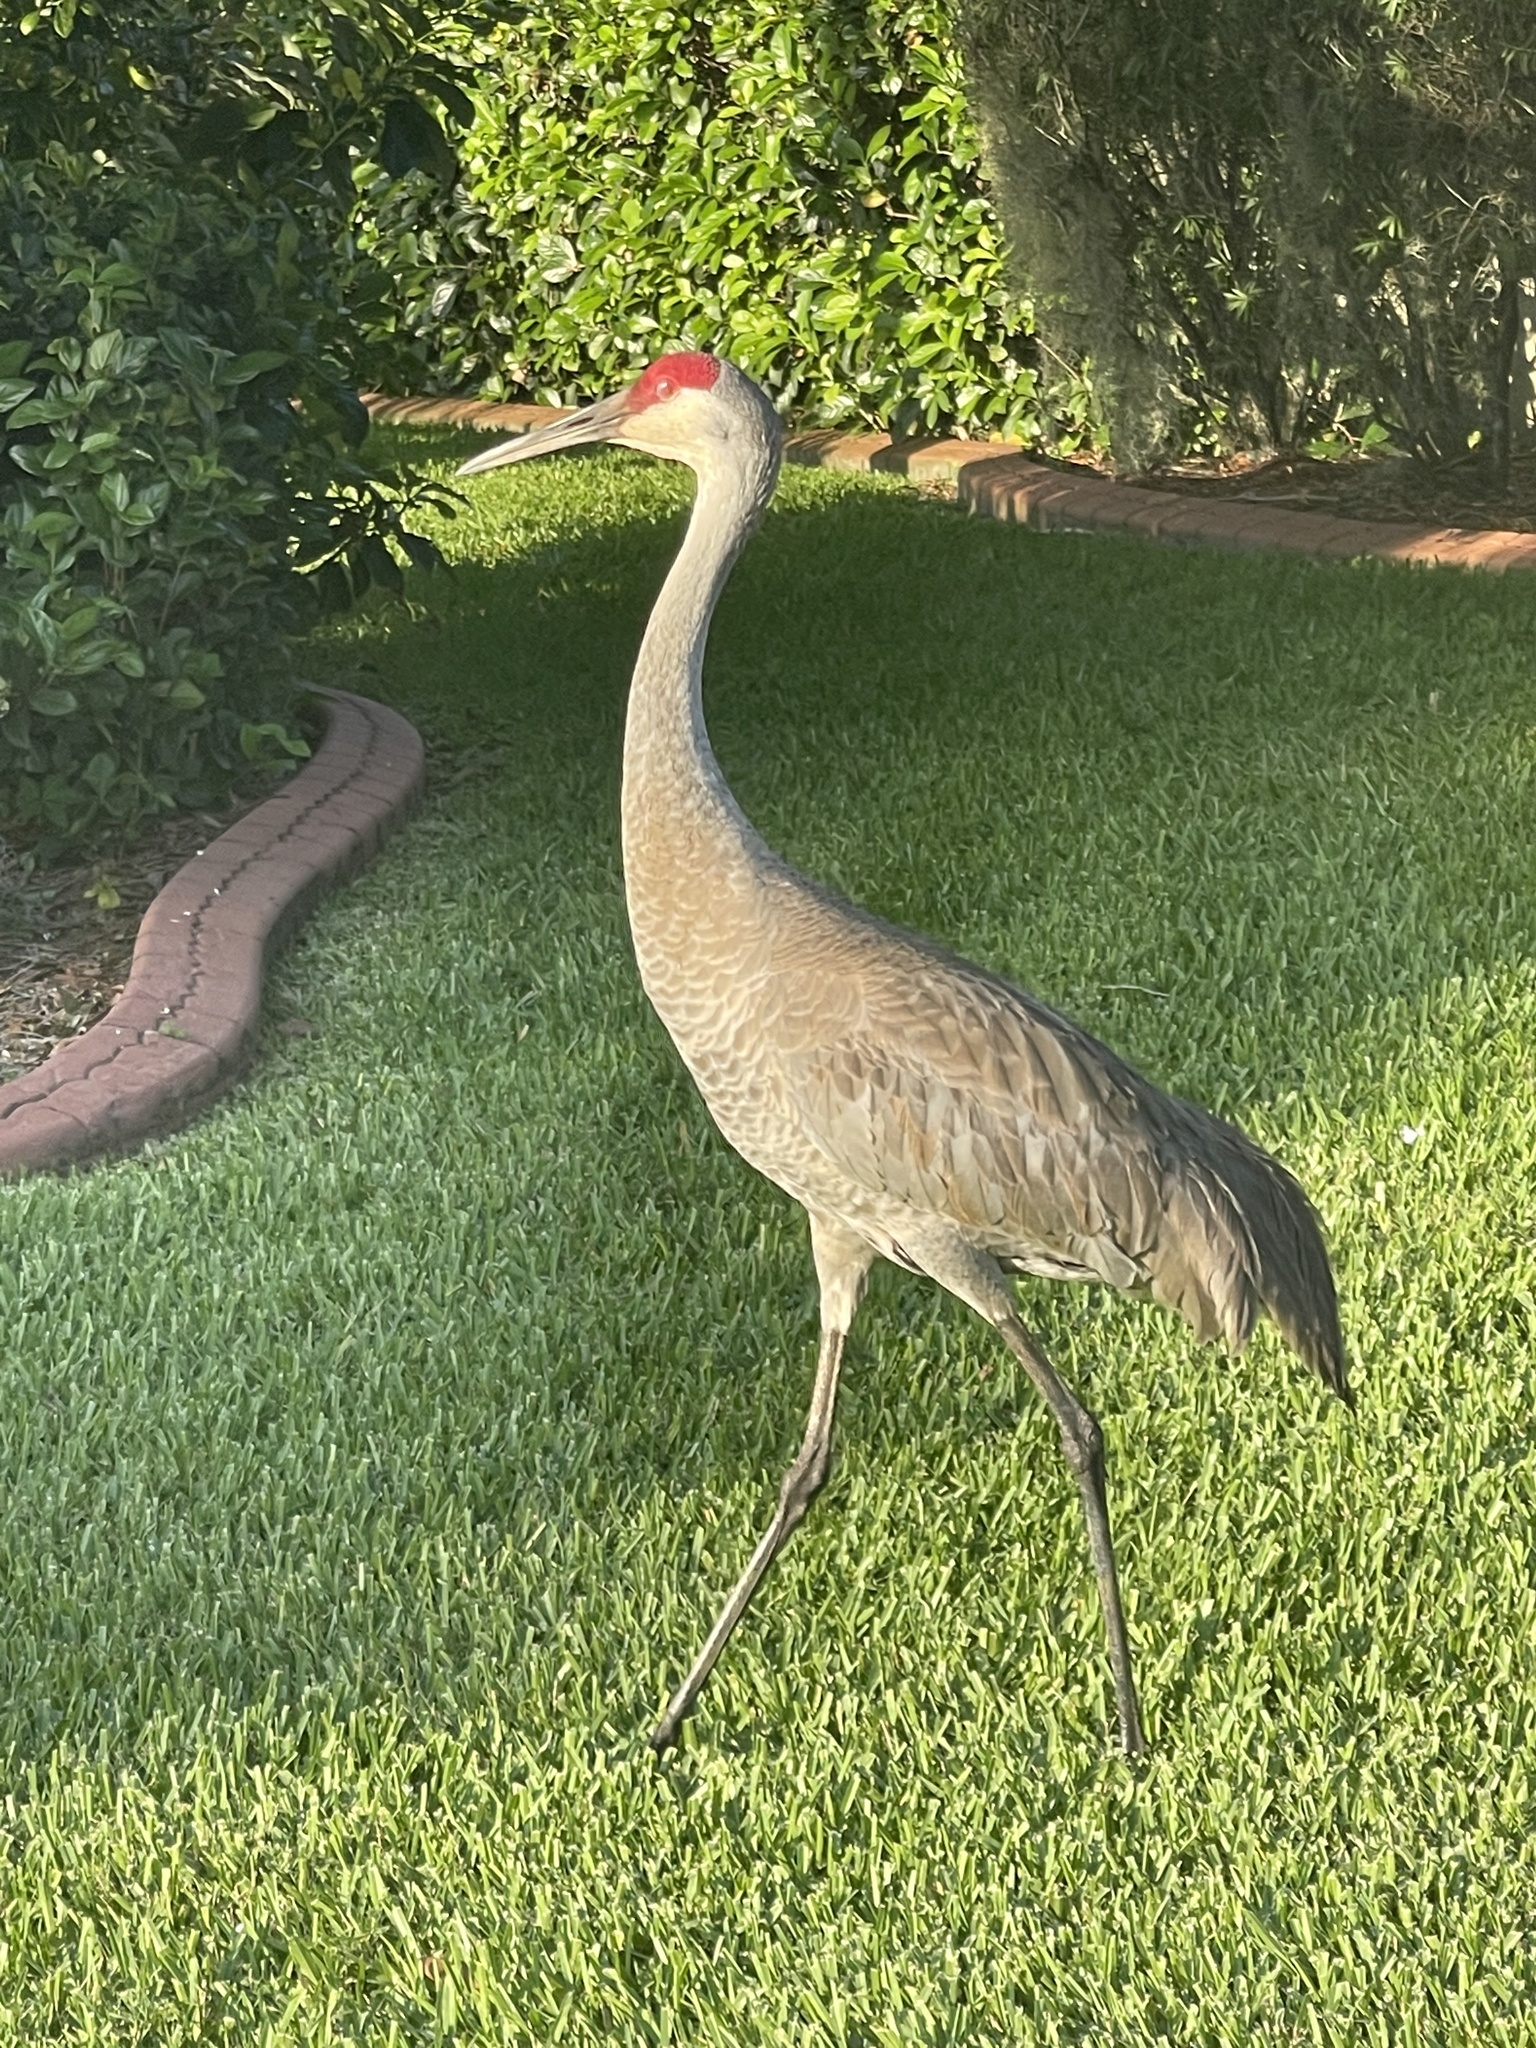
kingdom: Animalia
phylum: Chordata
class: Aves
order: Gruiformes
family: Gruidae
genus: Grus
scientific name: Grus canadensis
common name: Sandhill crane
